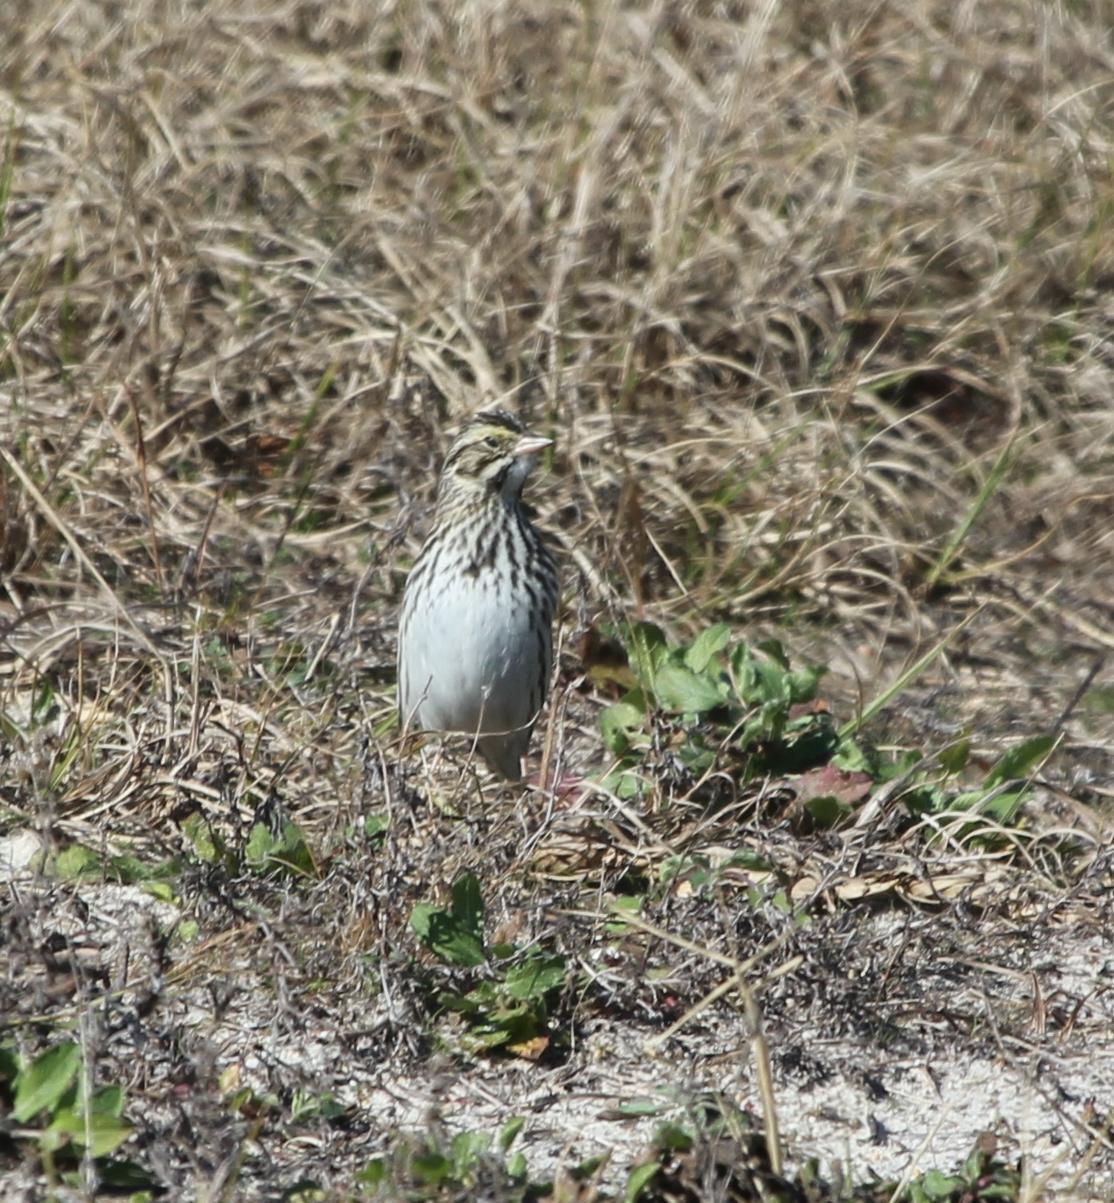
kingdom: Animalia
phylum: Chordata
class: Aves
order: Passeriformes
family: Passerellidae
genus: Passerculus
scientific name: Passerculus sandwichensis
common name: Savannah sparrow
